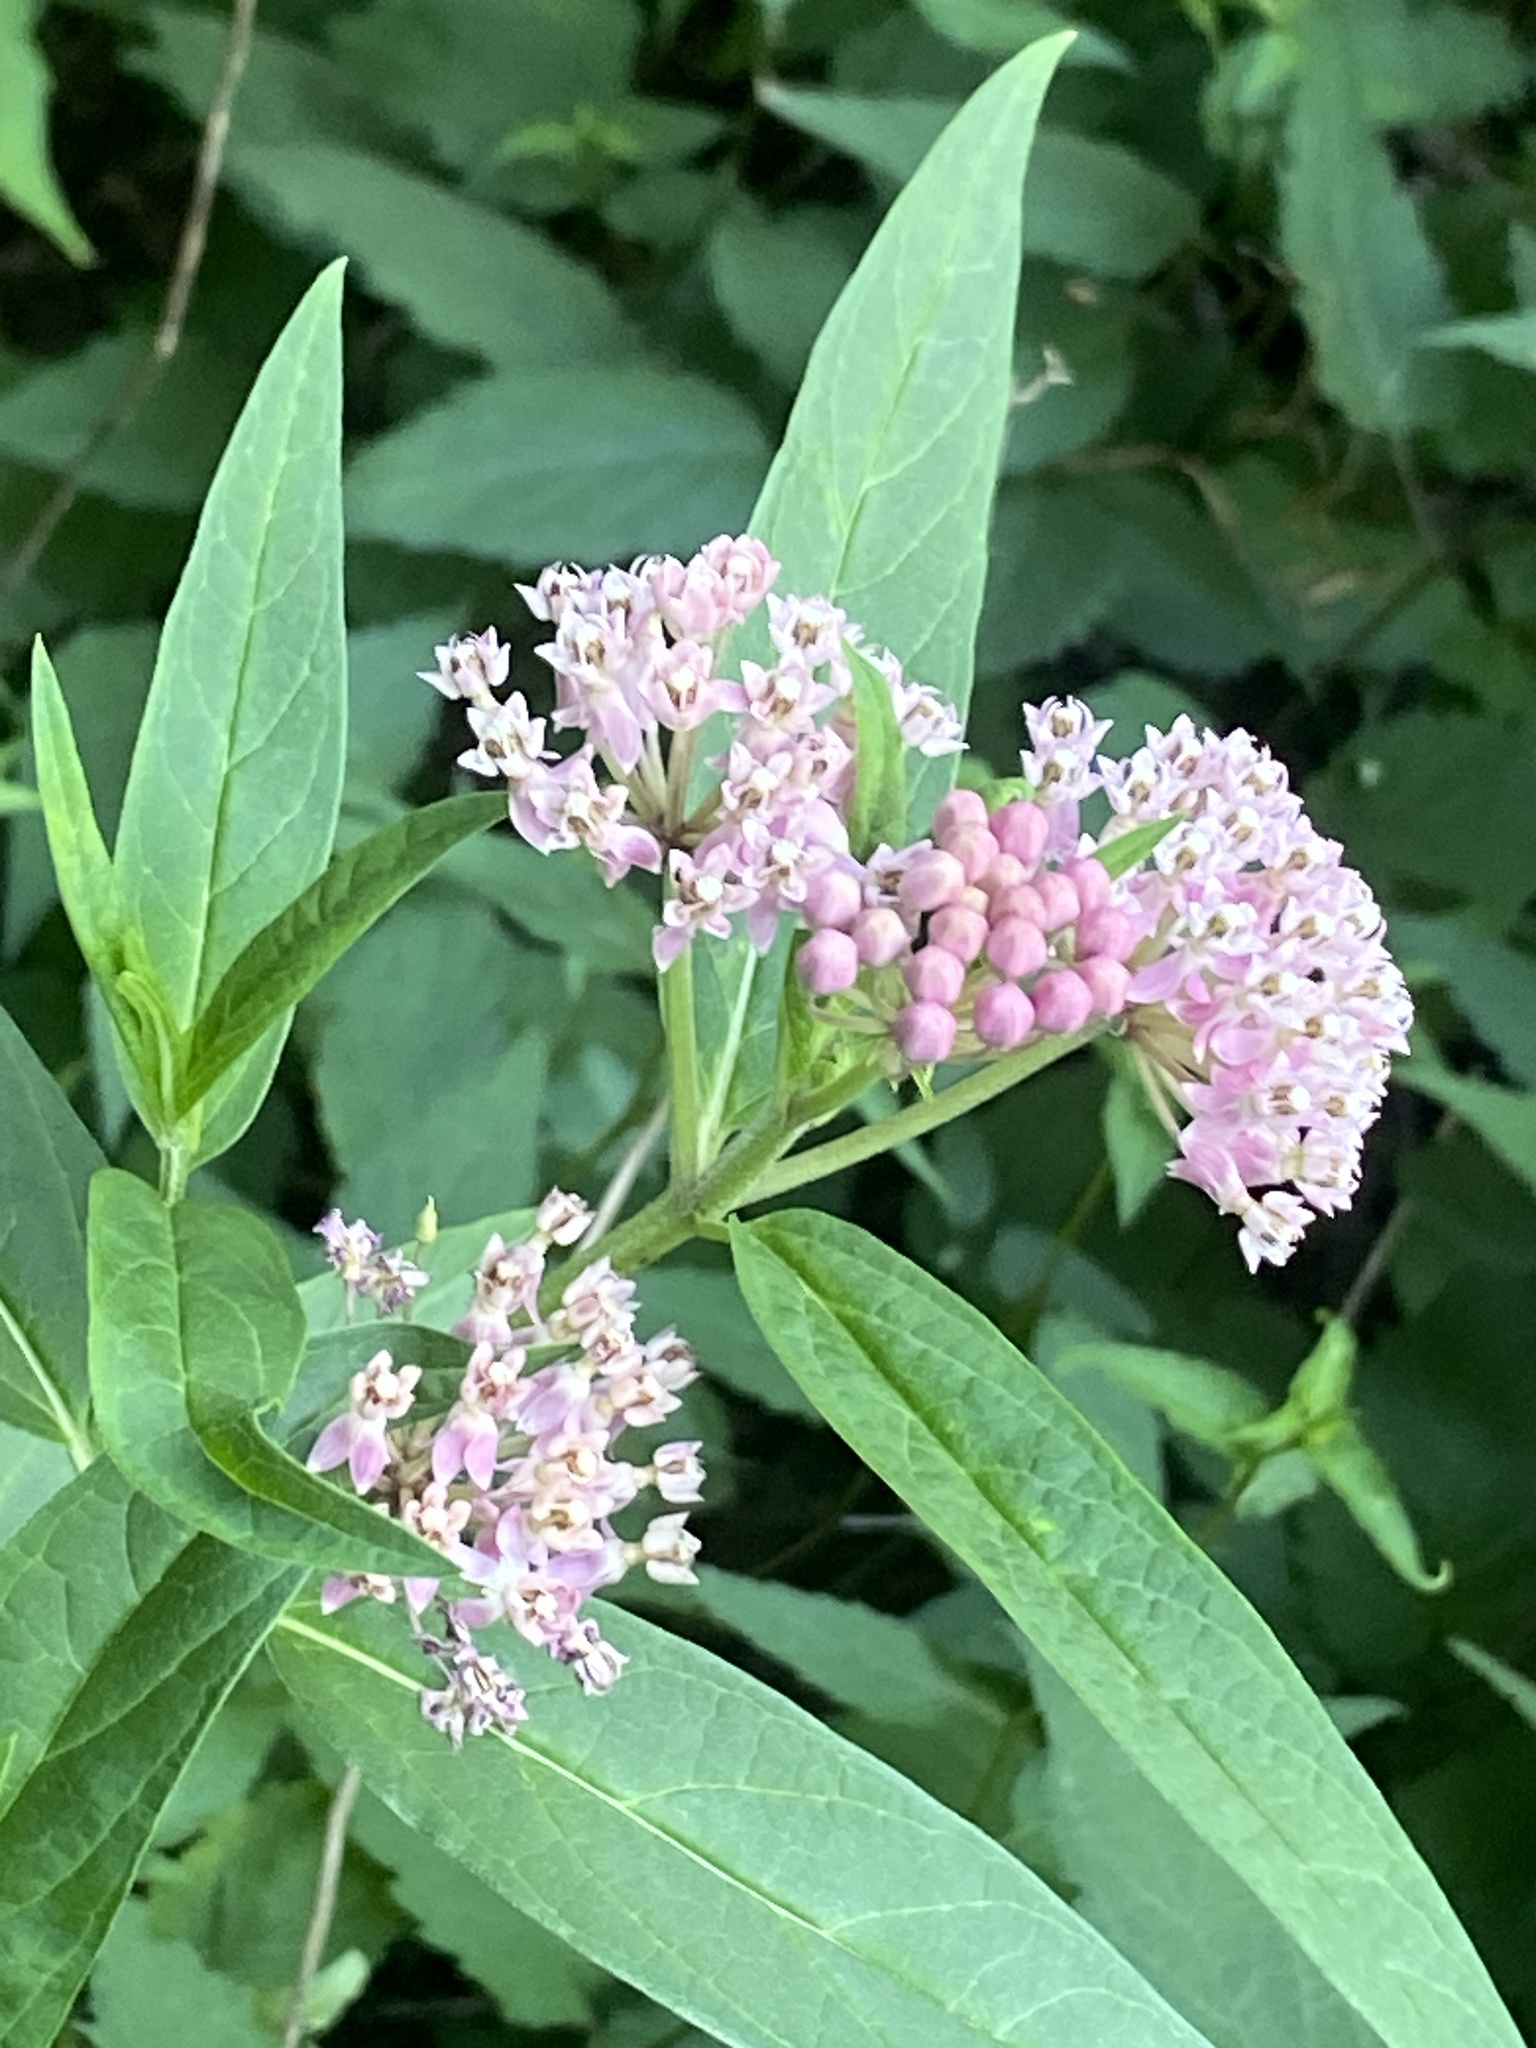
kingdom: Plantae
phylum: Tracheophyta
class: Magnoliopsida
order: Gentianales
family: Apocynaceae
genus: Asclepias
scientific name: Asclepias incarnata
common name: Swamp milkweed
